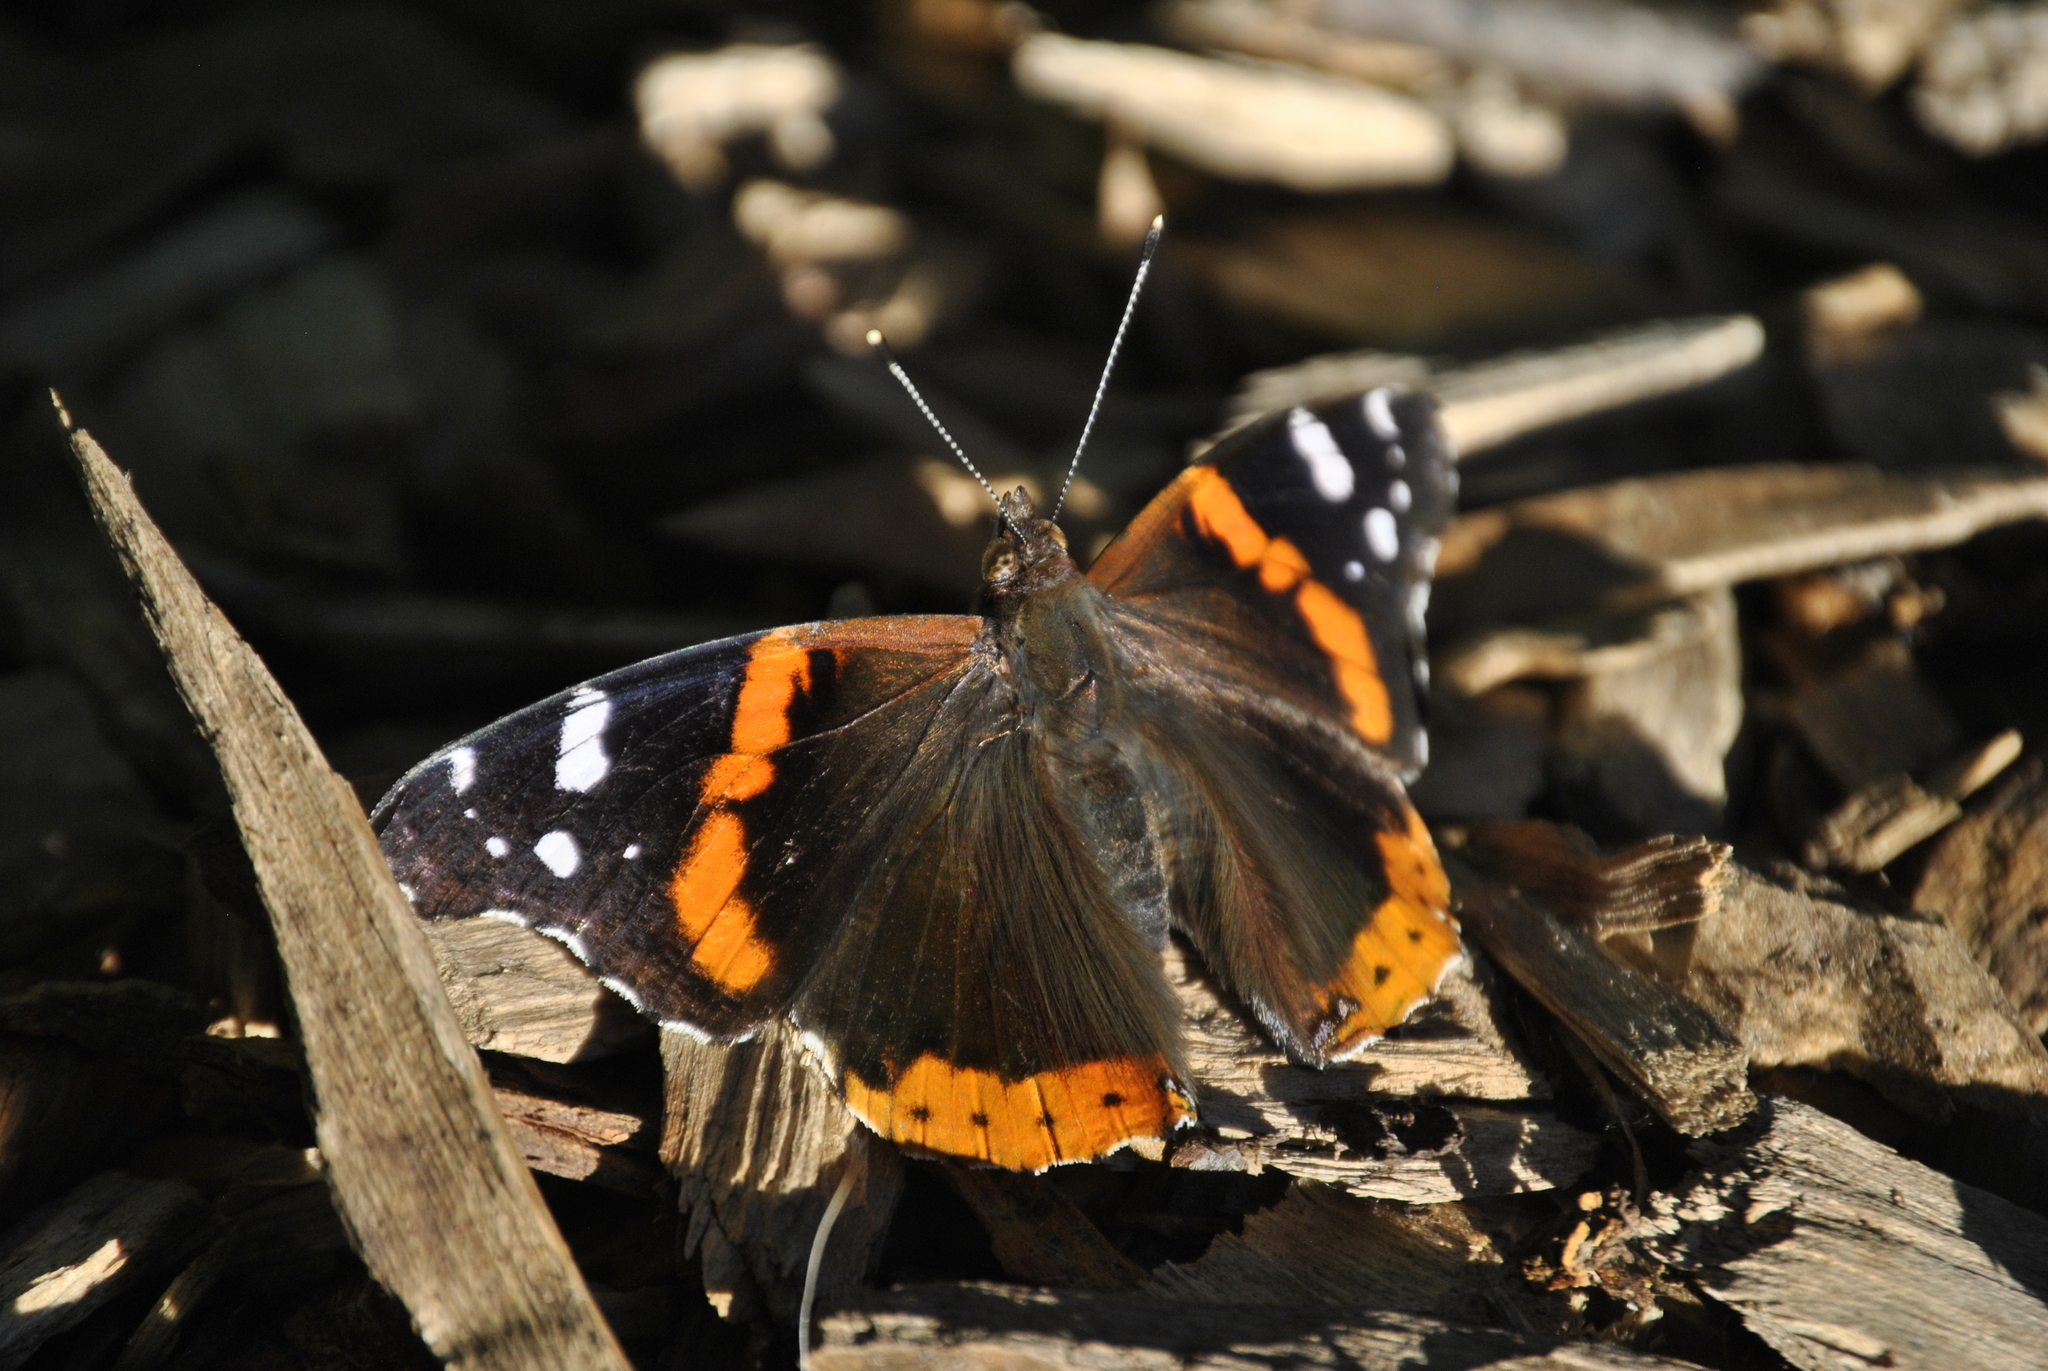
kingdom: Animalia
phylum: Arthropoda
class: Insecta
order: Lepidoptera
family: Nymphalidae
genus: Vanessa
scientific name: Vanessa atalanta
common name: Red admiral
